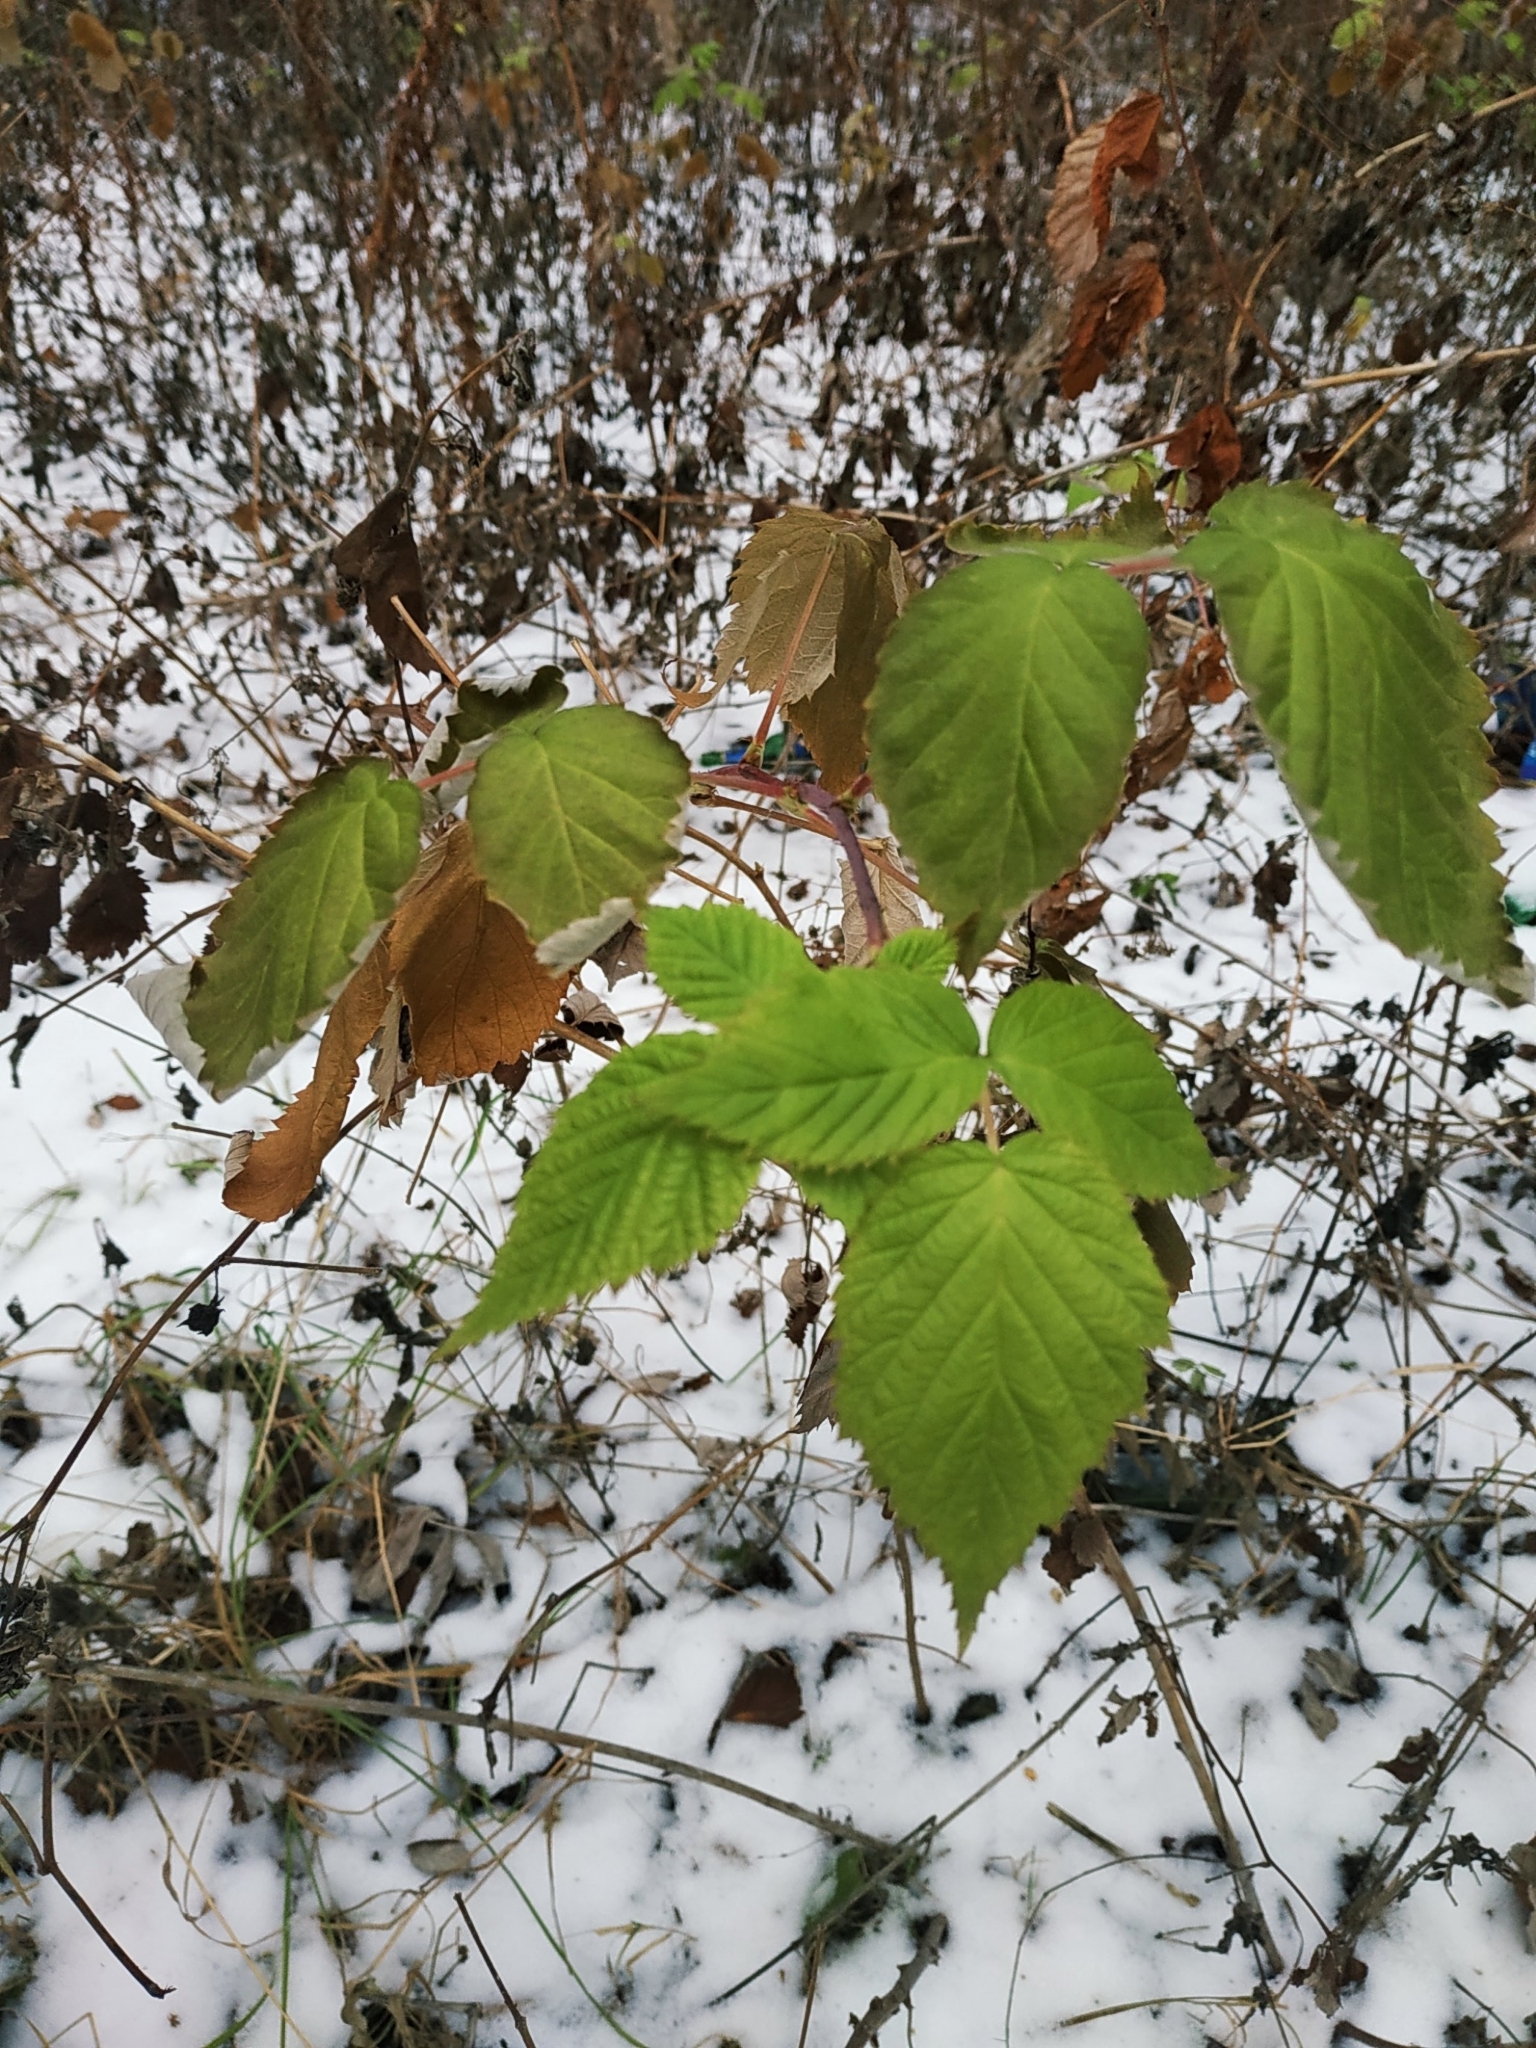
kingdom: Plantae
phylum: Tracheophyta
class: Magnoliopsida
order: Rosales
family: Rosaceae
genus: Rubus
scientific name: Rubus idaeus
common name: Raspberry
